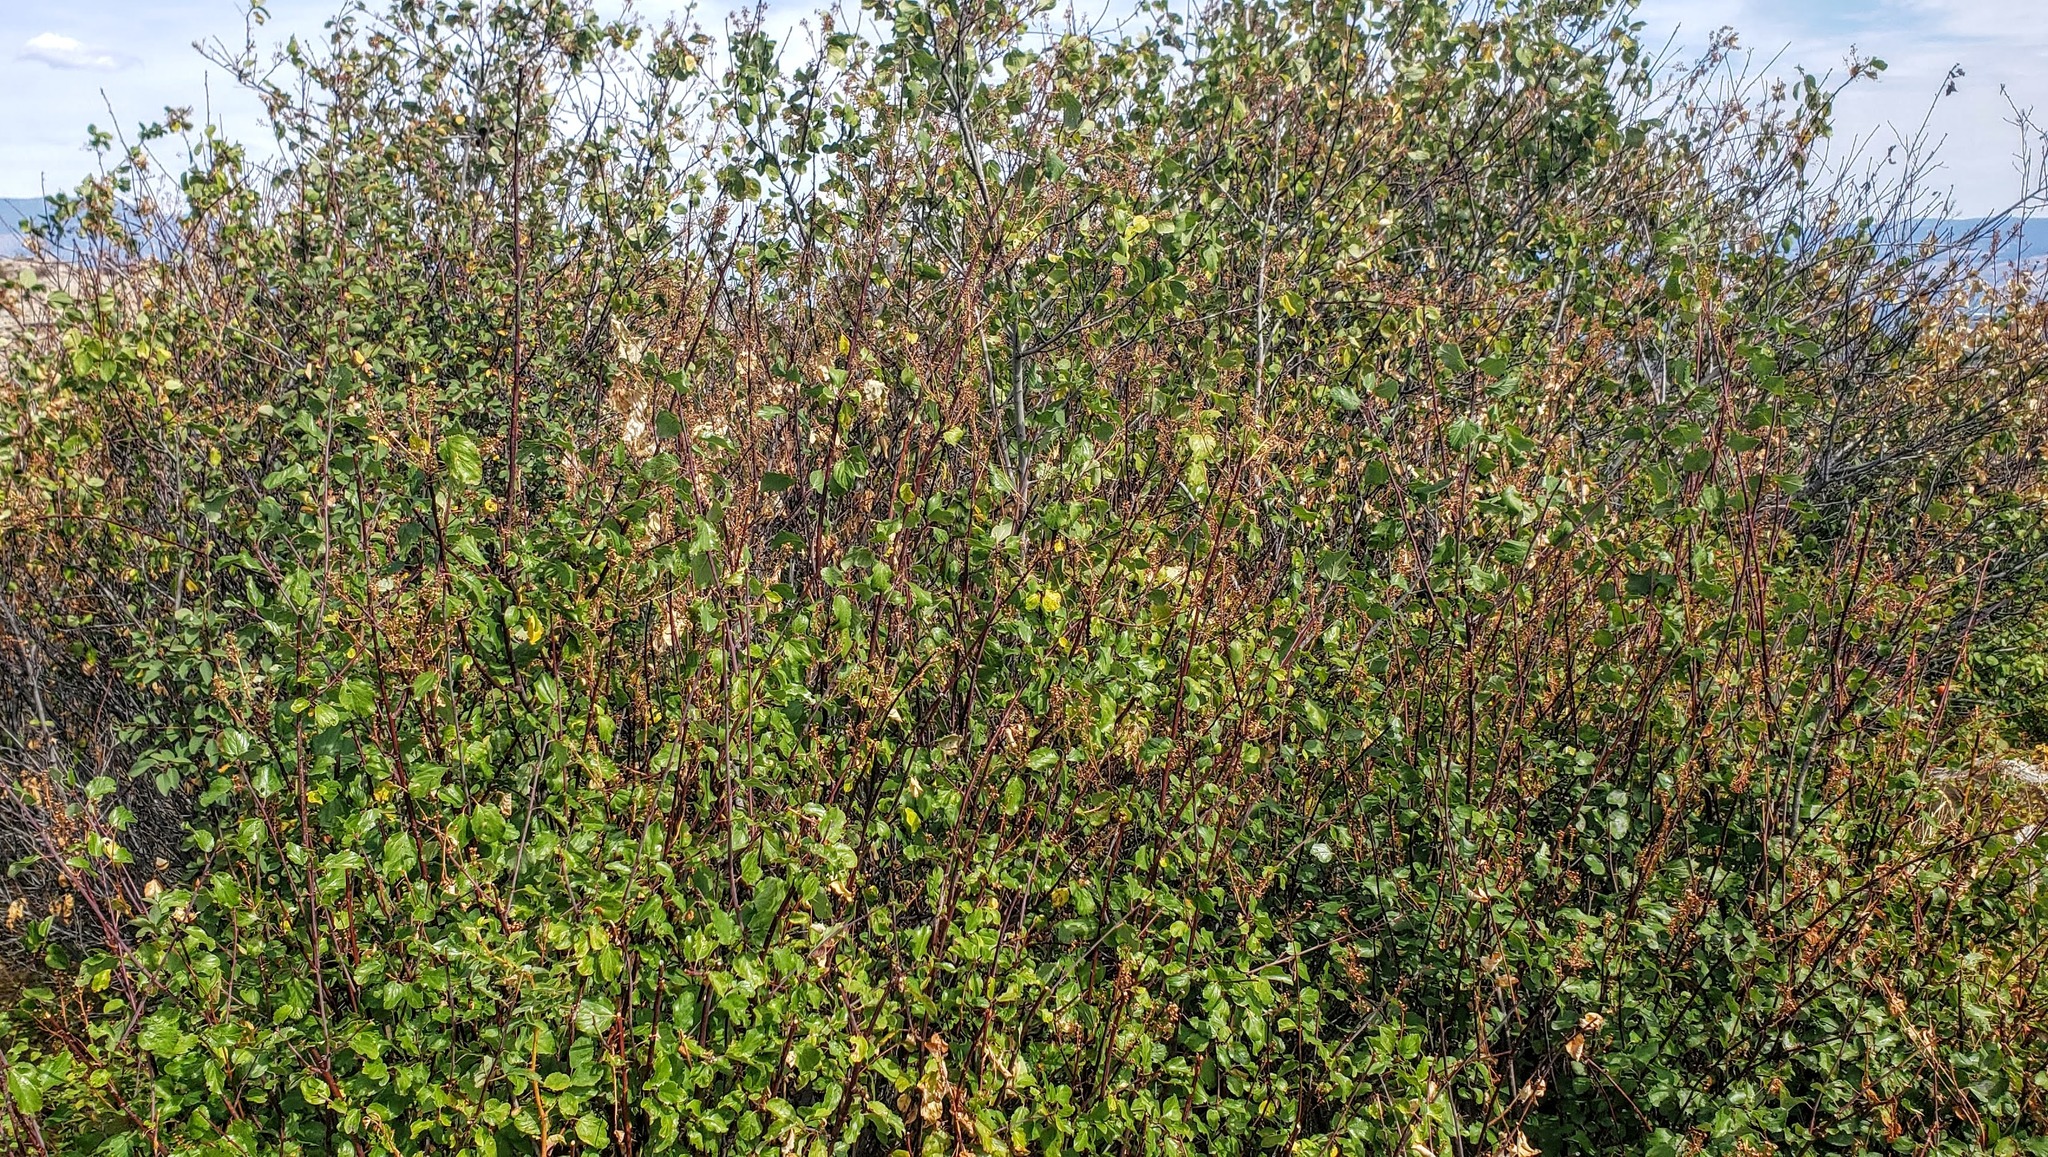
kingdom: Plantae
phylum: Tracheophyta
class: Magnoliopsida
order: Rosales
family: Rhamnaceae
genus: Ceanothus
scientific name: Ceanothus sanguineus
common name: Teatree
